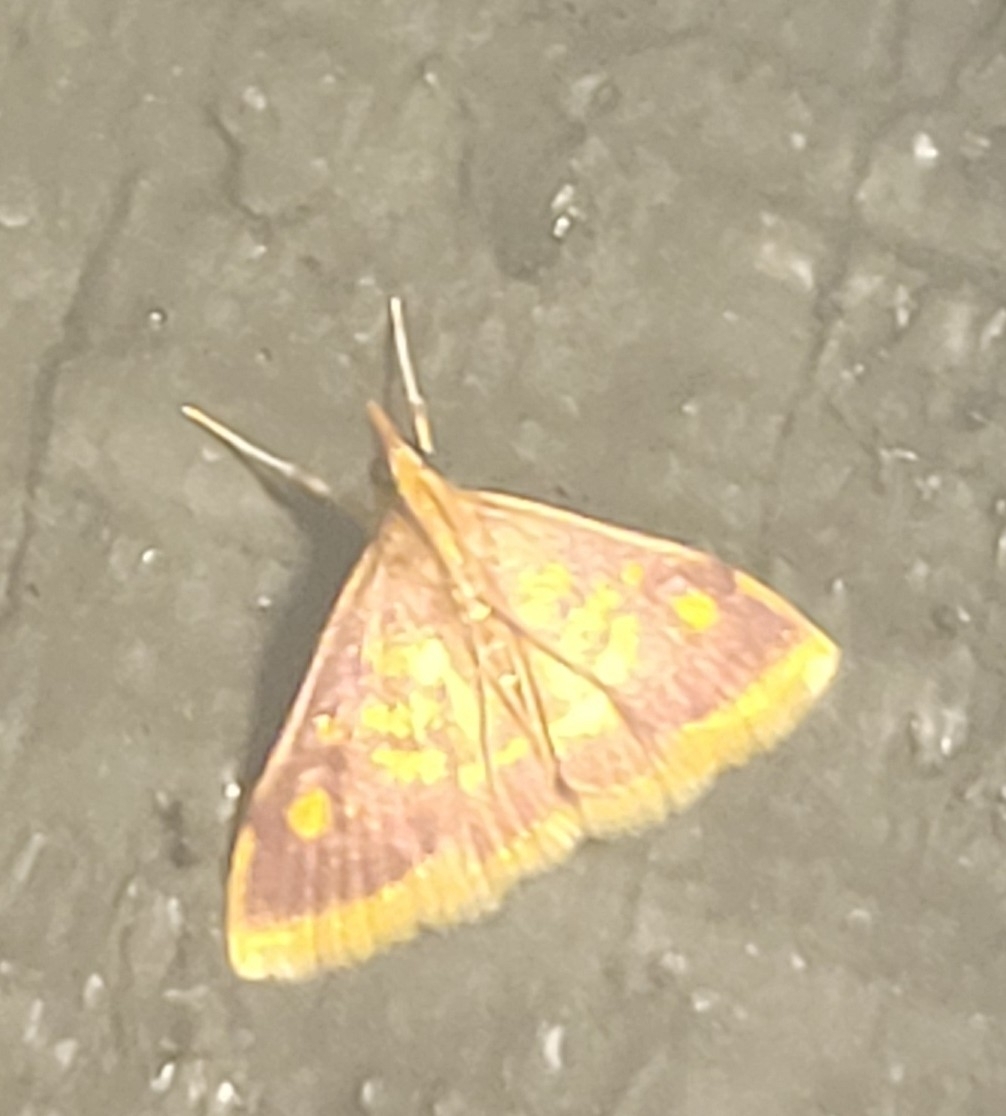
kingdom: Animalia
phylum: Arthropoda
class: Insecta
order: Lepidoptera
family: Crambidae
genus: Pyrausta
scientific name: Pyrausta acrionalis
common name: Mint-loving pyrausta moth
